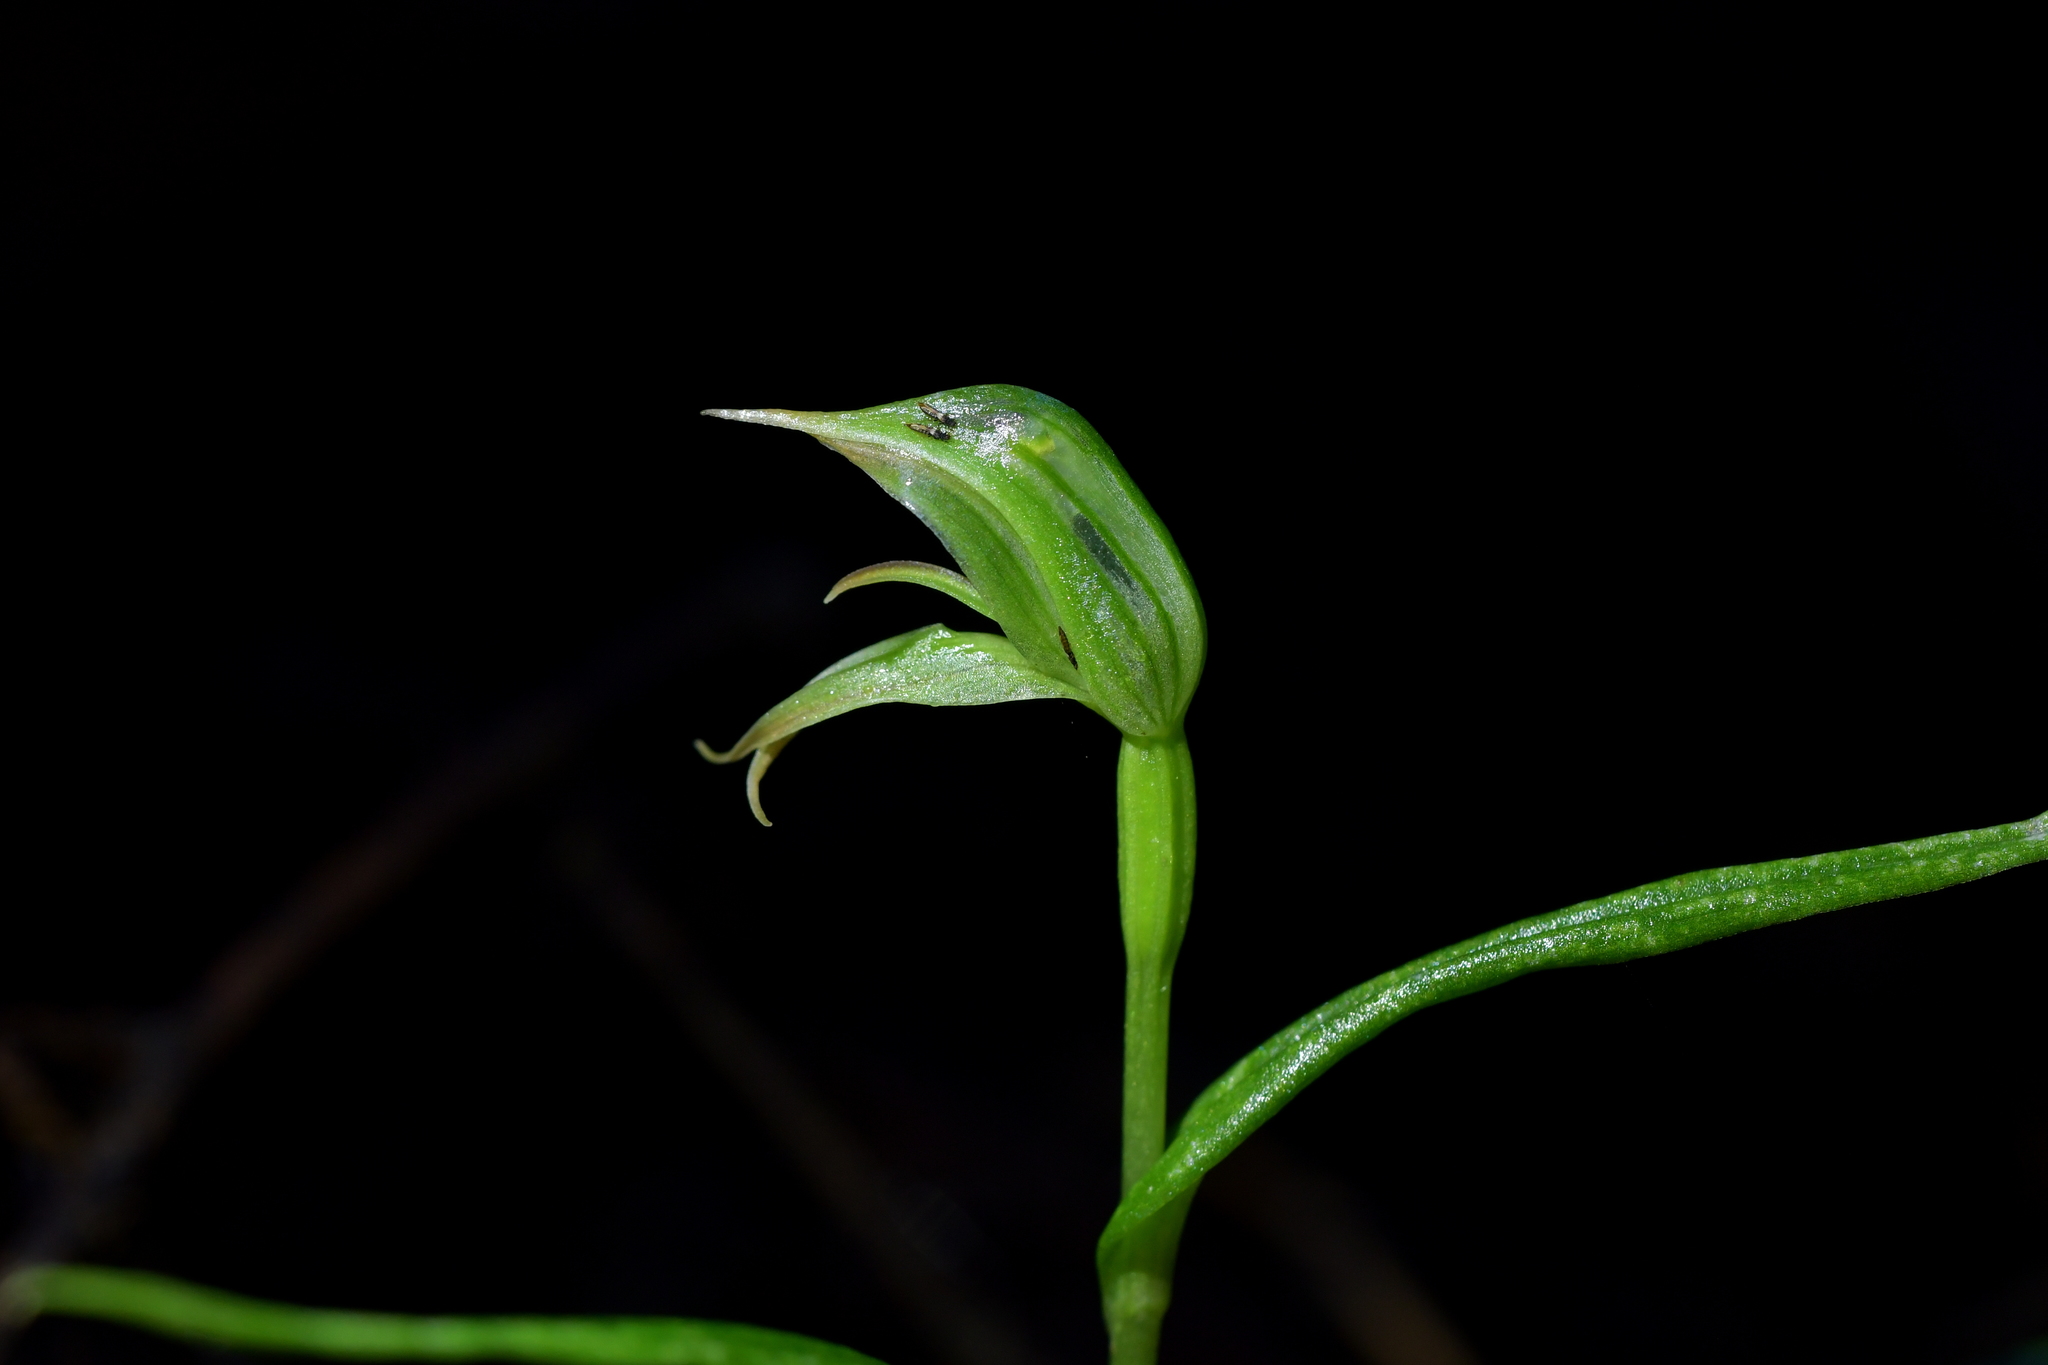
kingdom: Plantae
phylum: Tracheophyta
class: Liliopsida
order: Asparagales
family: Orchidaceae
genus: Pterostylis
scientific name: Pterostylis porrecta
